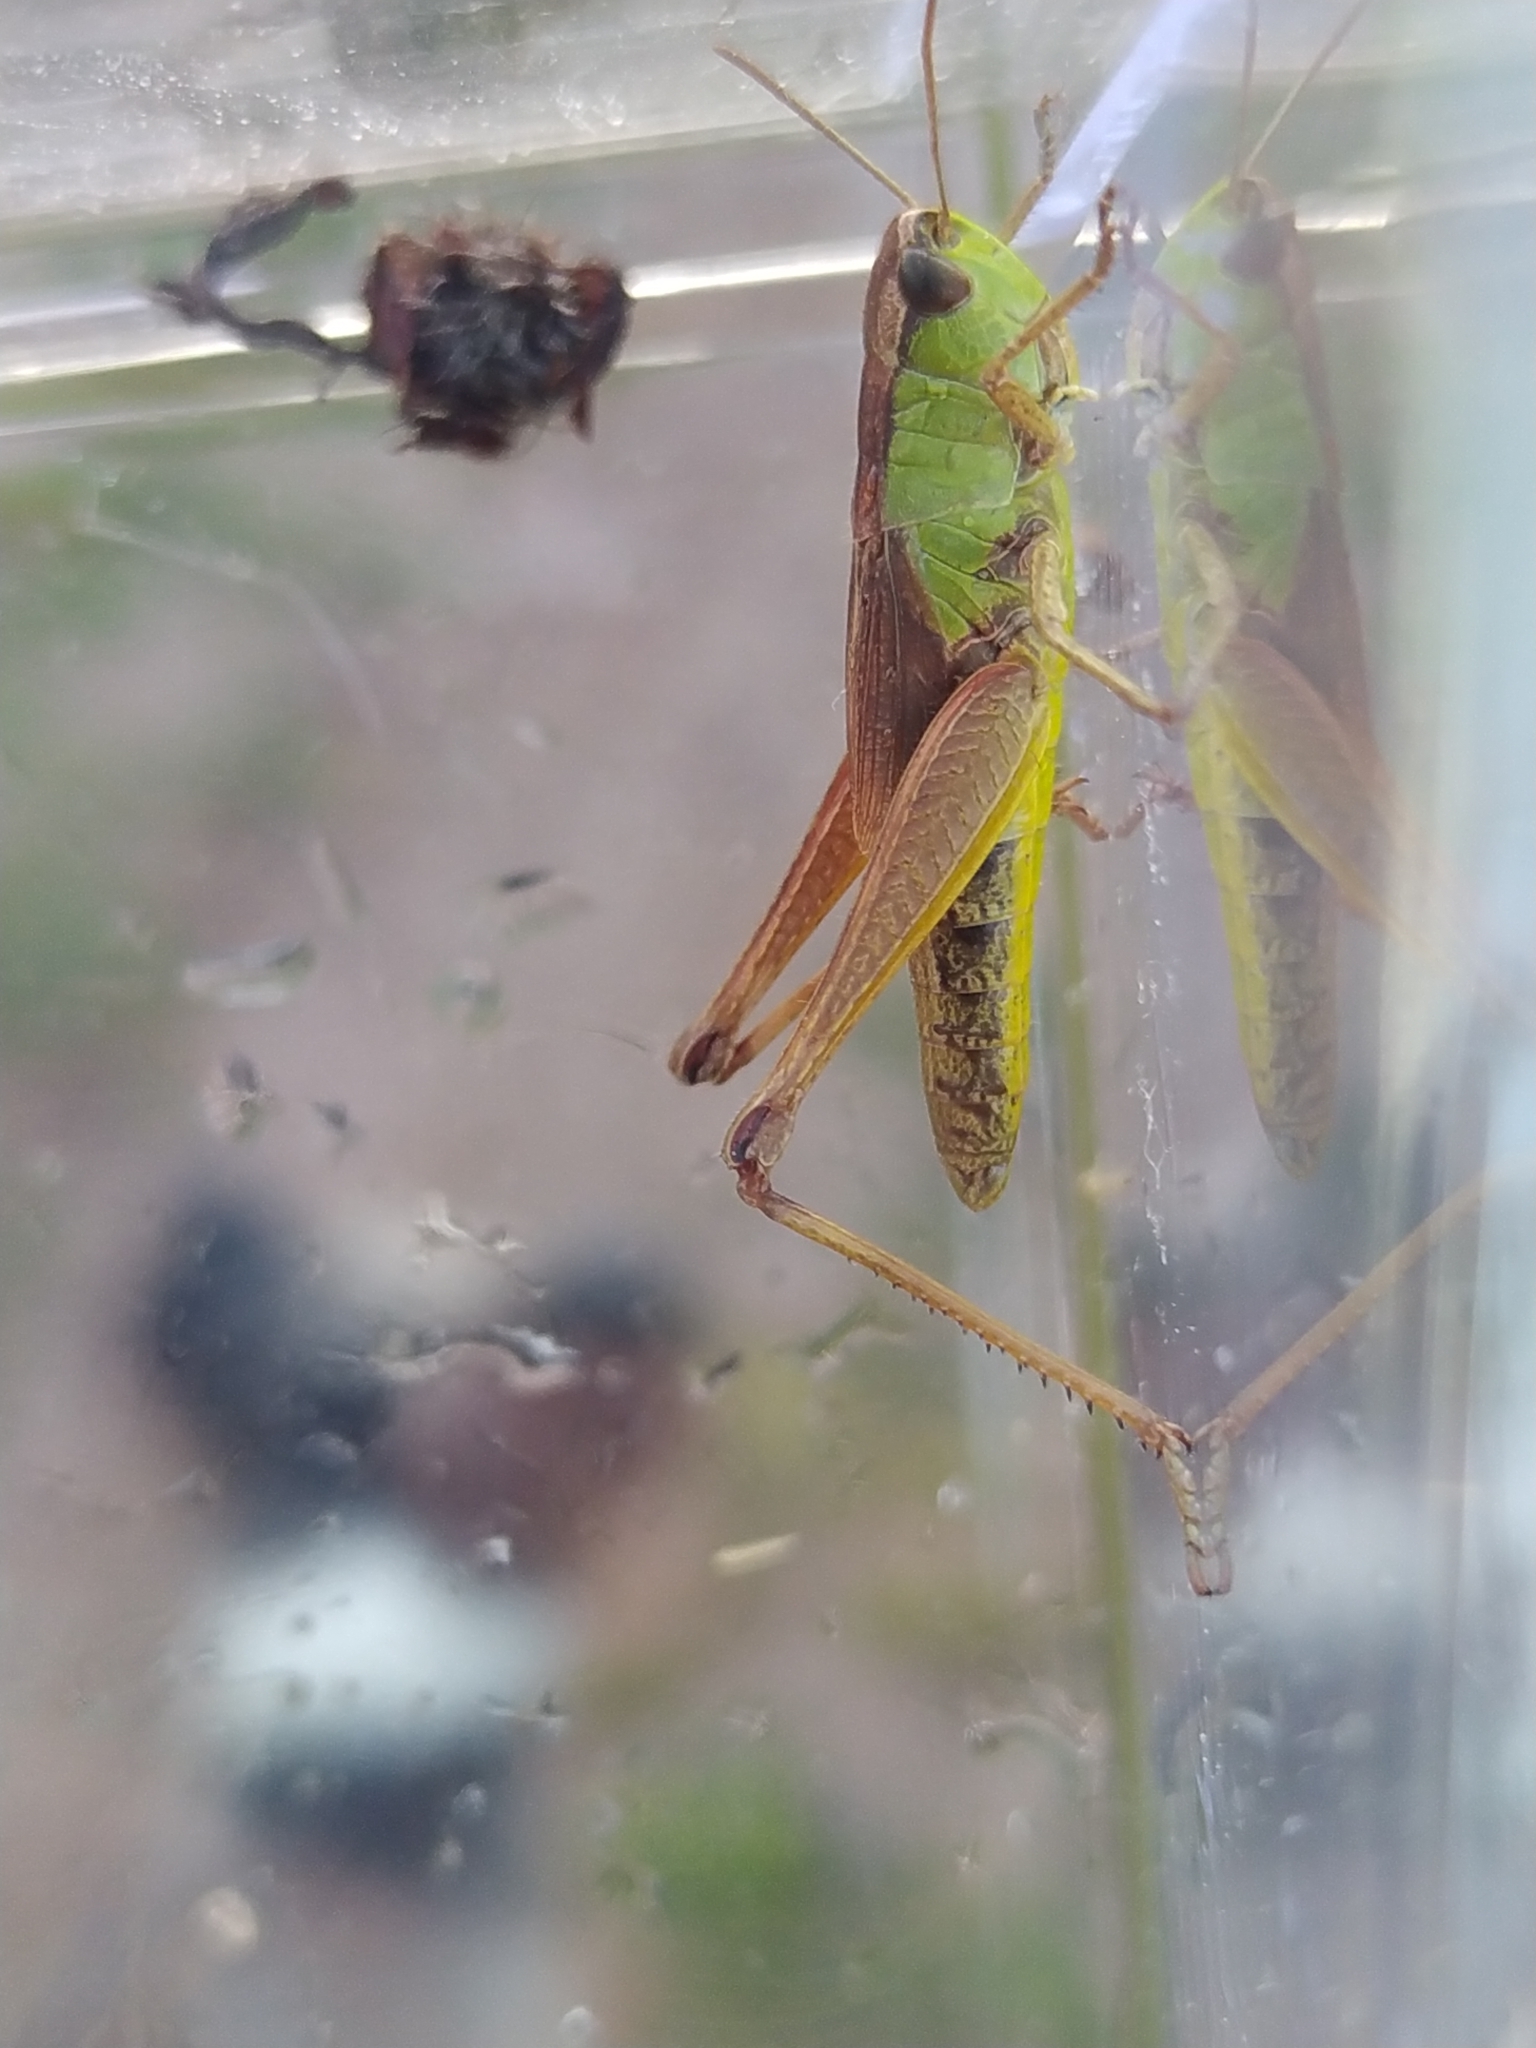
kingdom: Animalia
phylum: Arthropoda
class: Insecta
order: Orthoptera
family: Acrididae
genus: Pseudochorthippus
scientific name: Pseudochorthippus parallelus
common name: Meadow grasshopper
